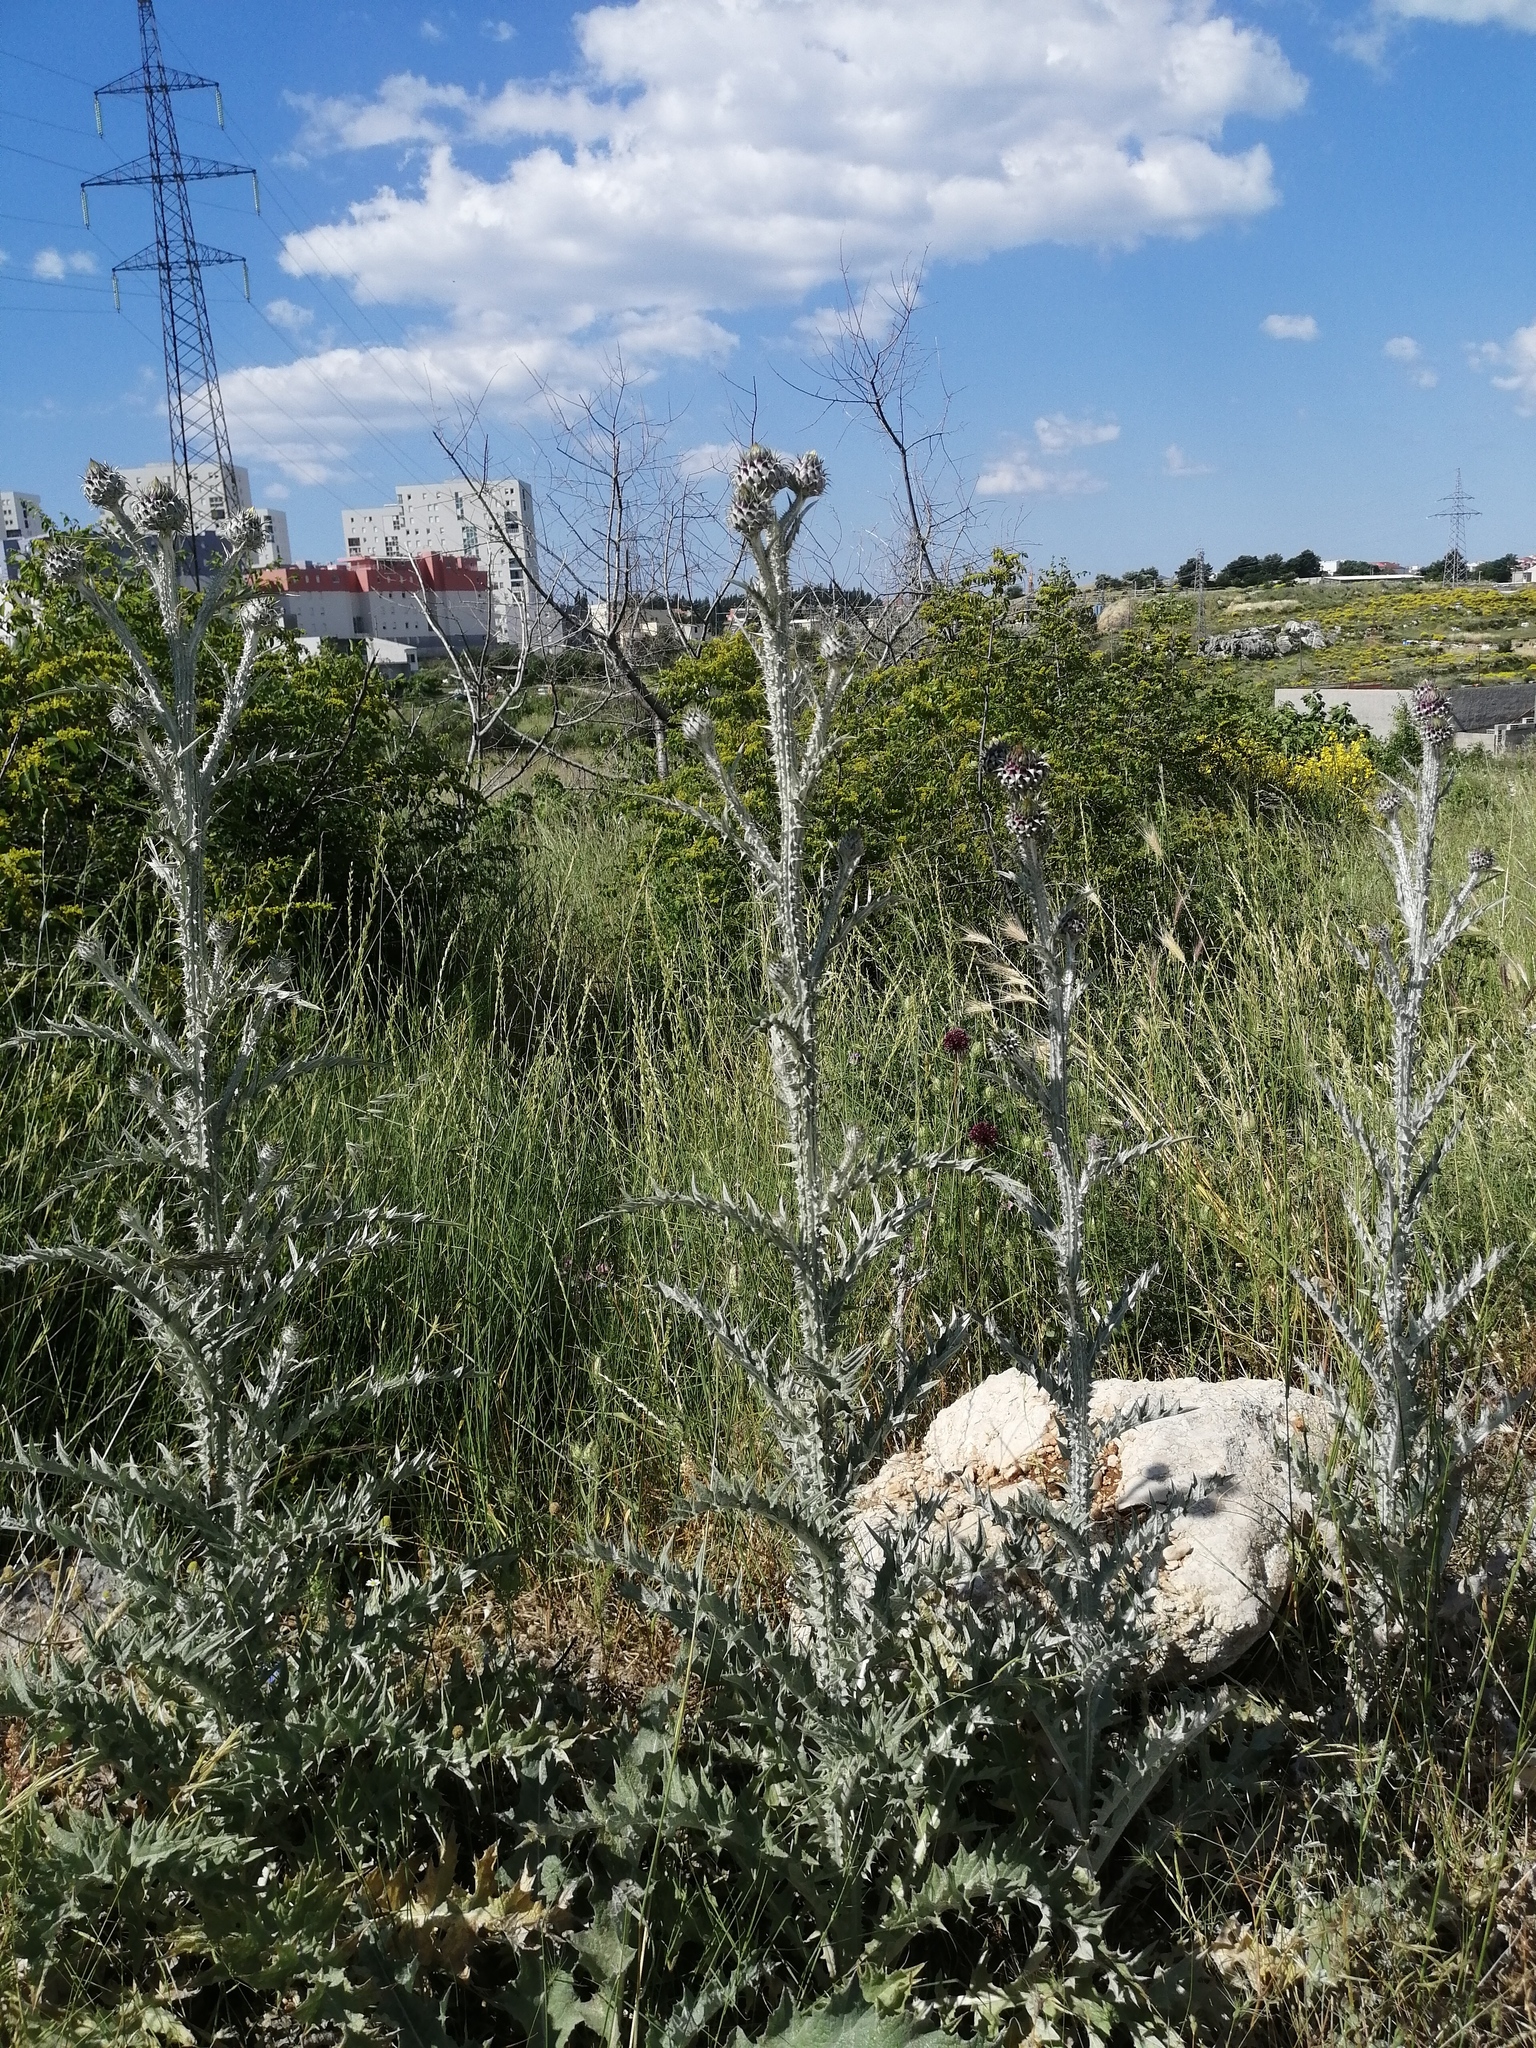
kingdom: Plantae
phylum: Tracheophyta
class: Magnoliopsida
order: Asterales
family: Asteraceae
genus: Onopordum
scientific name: Onopordum illyricum
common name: Illyrian thistle
